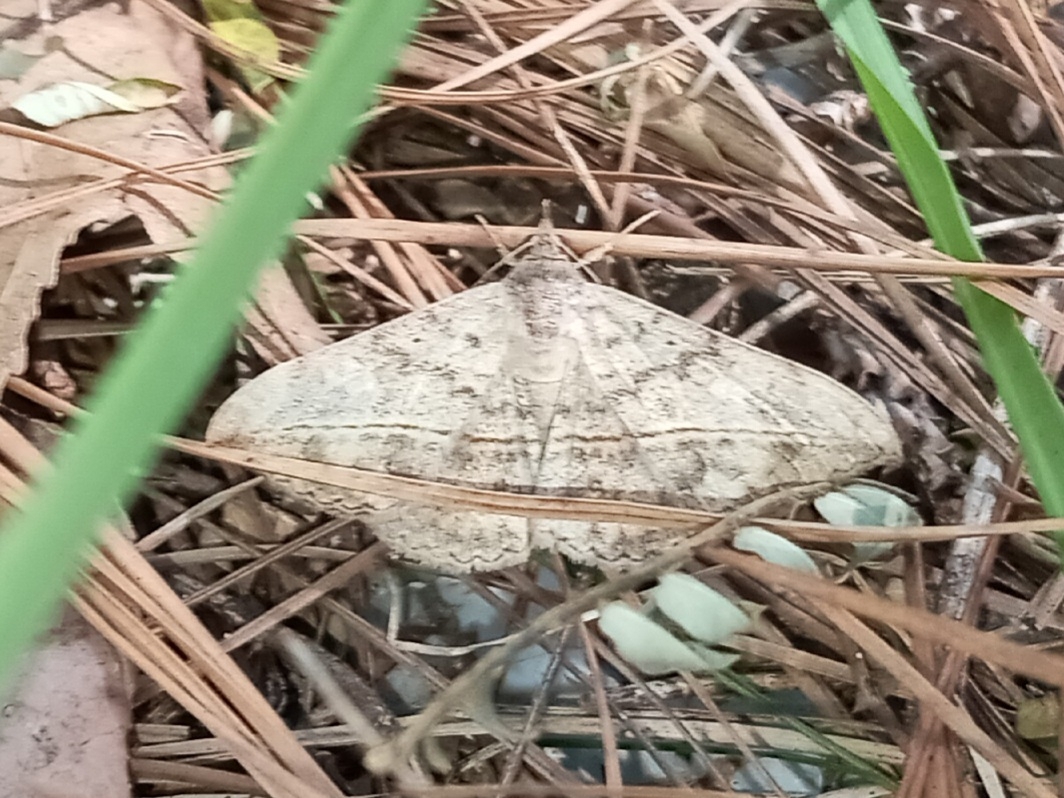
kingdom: Animalia
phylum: Arthropoda
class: Insecta
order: Lepidoptera
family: Erebidae
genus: Anticarsia
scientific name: Anticarsia gemmatalis
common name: Cutworm moth
